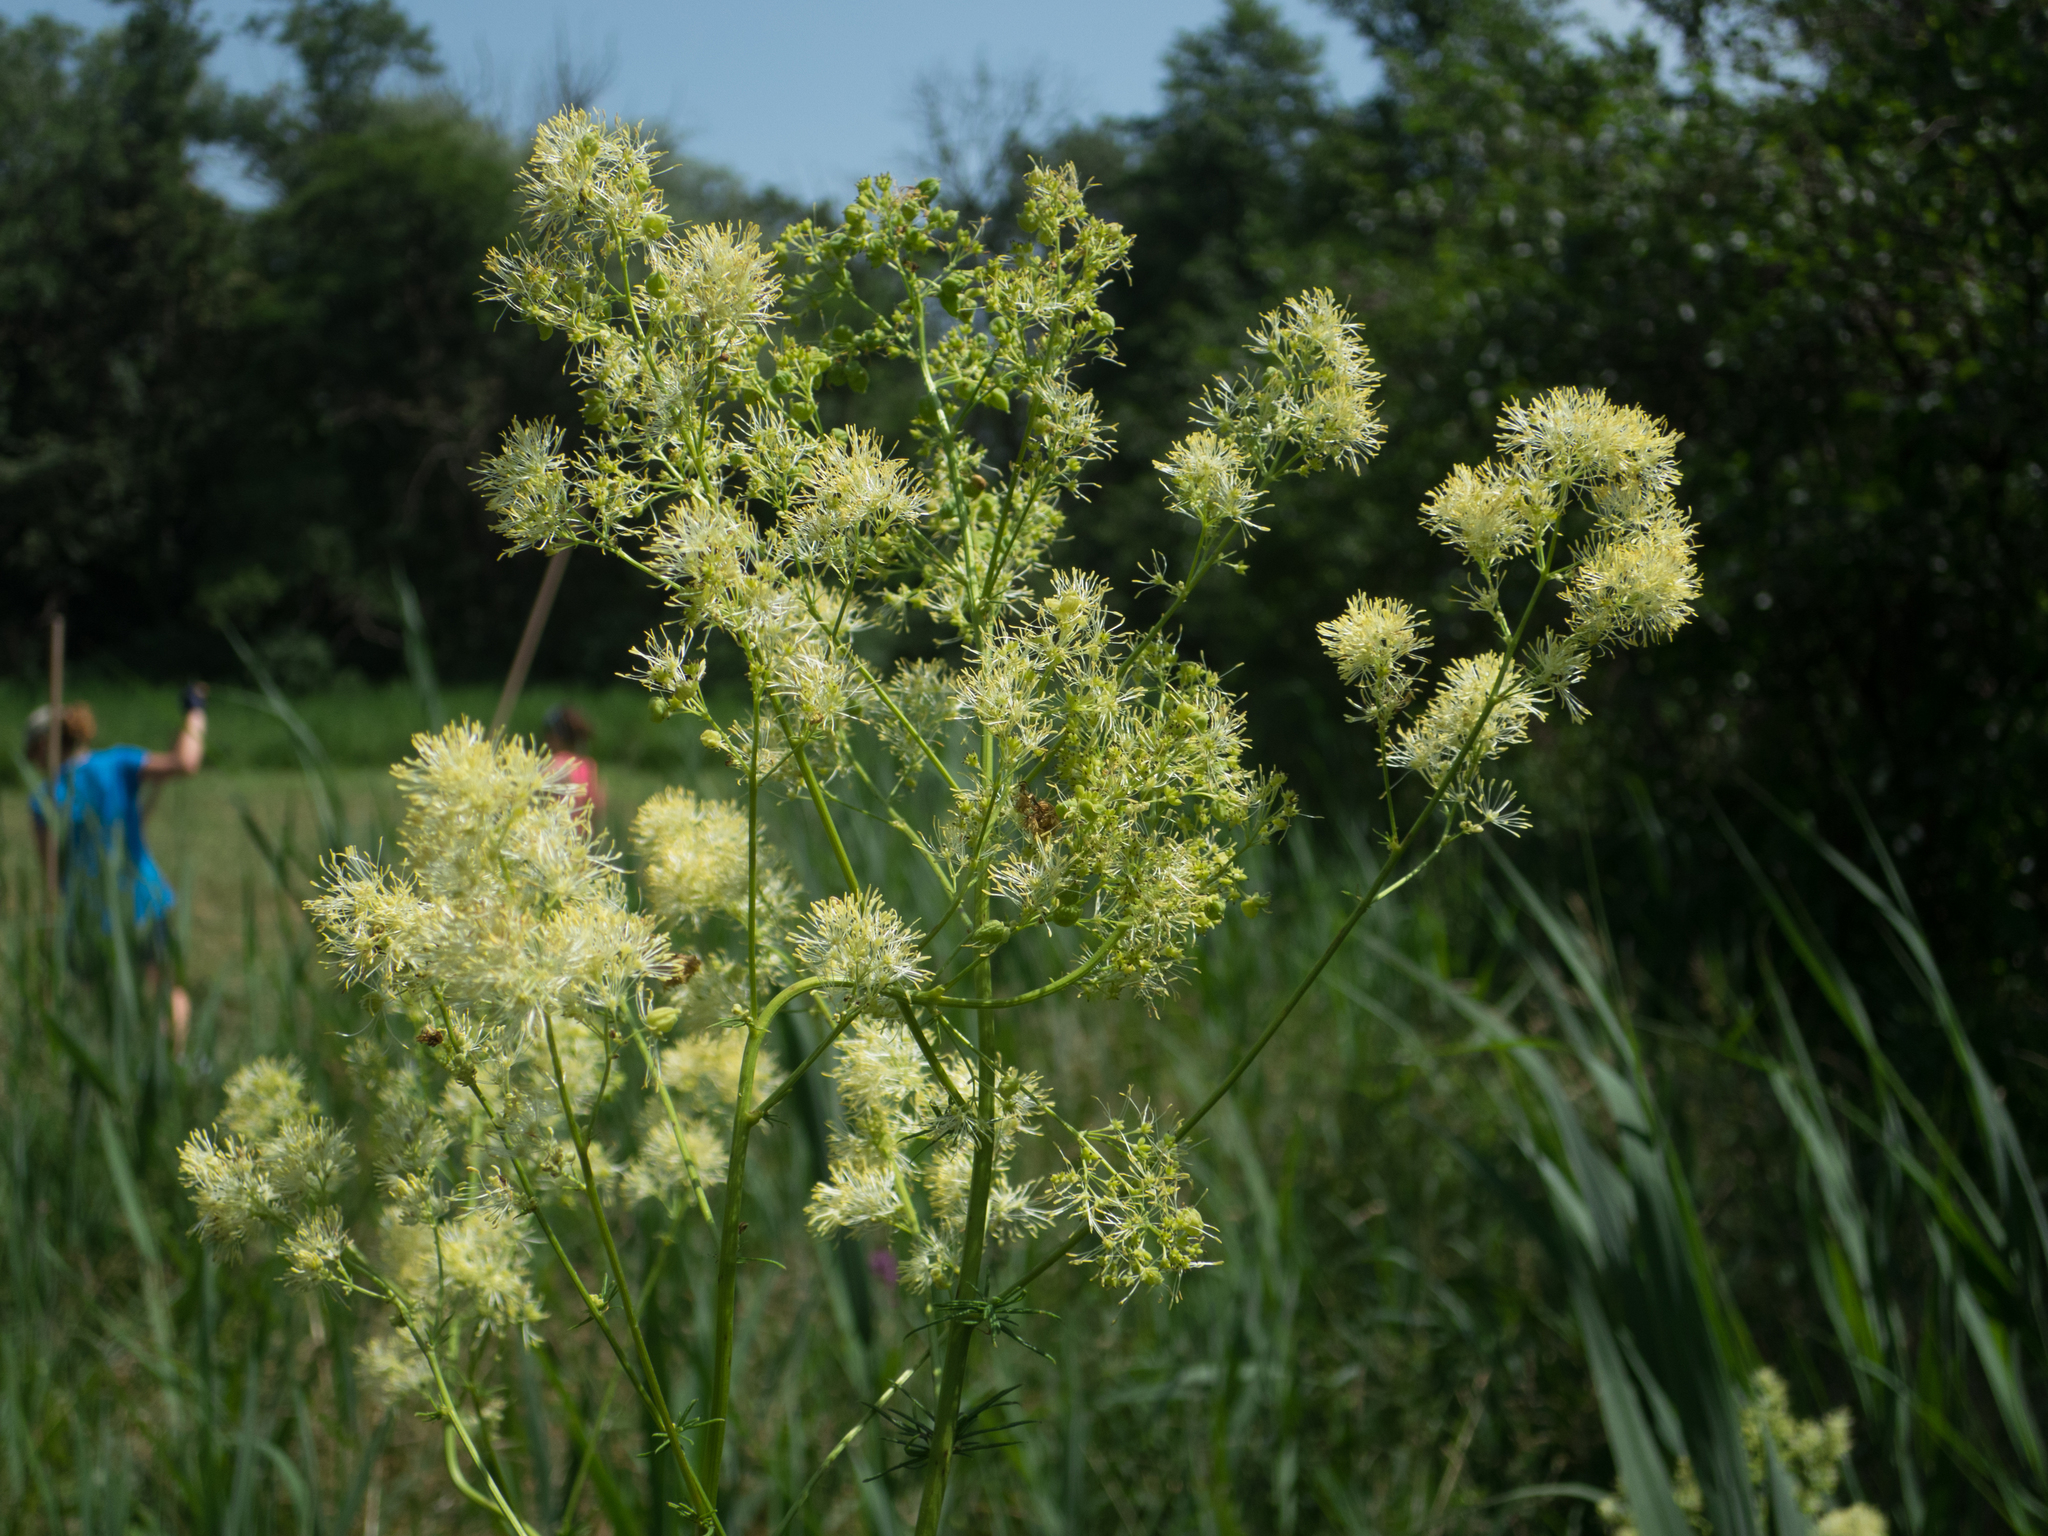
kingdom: Plantae
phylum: Tracheophyta
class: Magnoliopsida
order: Ranunculales
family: Ranunculaceae
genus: Thalictrum
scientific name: Thalictrum lucidum
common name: Shining meadow-rue
